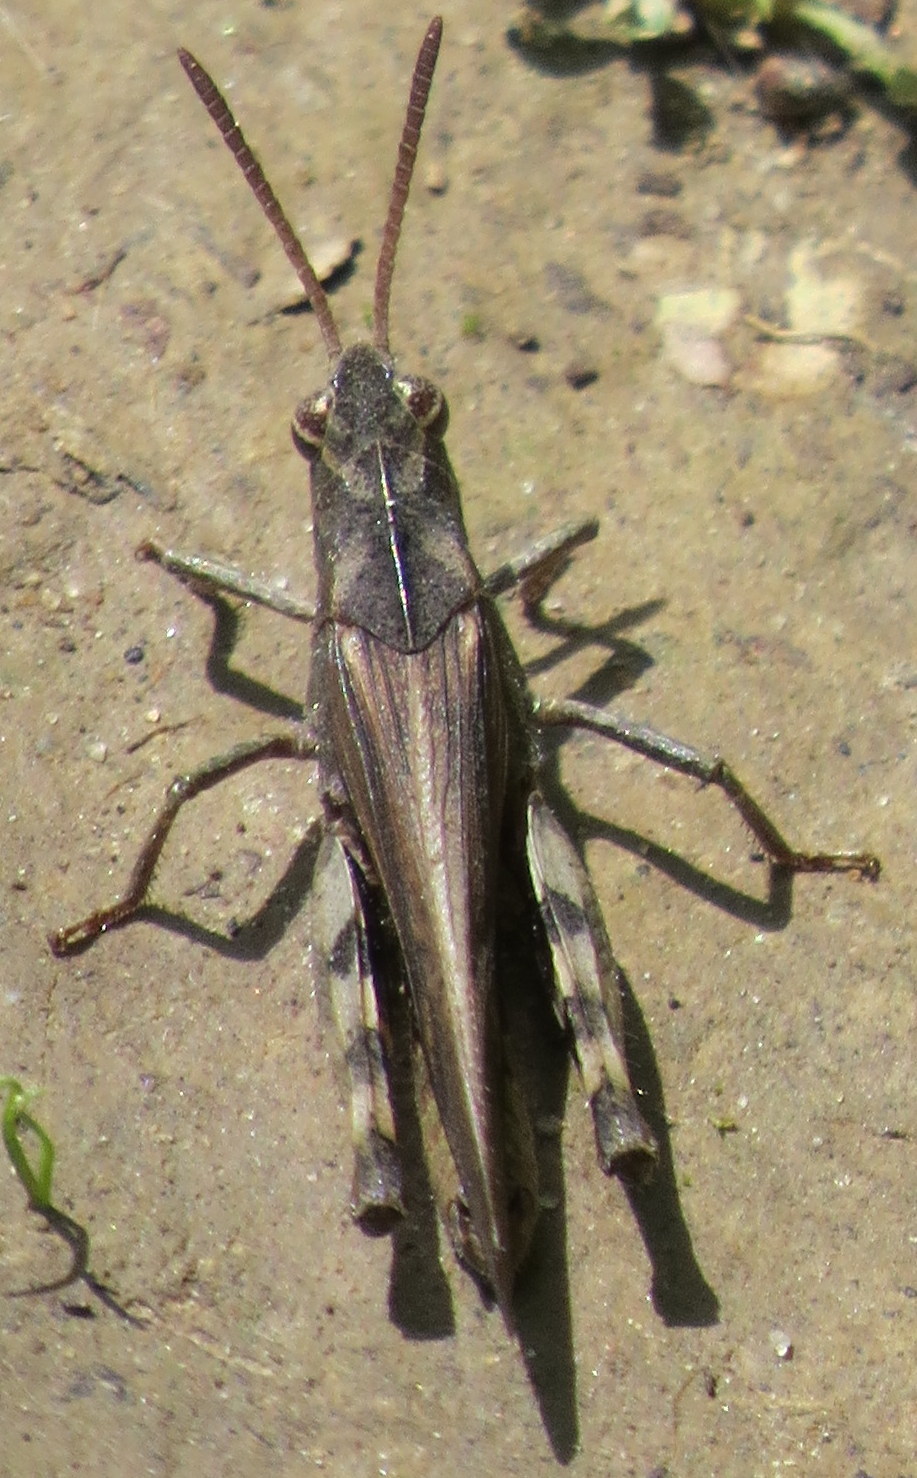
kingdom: Animalia
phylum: Arthropoda
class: Insecta
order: Orthoptera
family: Acrididae
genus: Chortophaga
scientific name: Chortophaga viridifasciata
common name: Green-striped grasshopper
